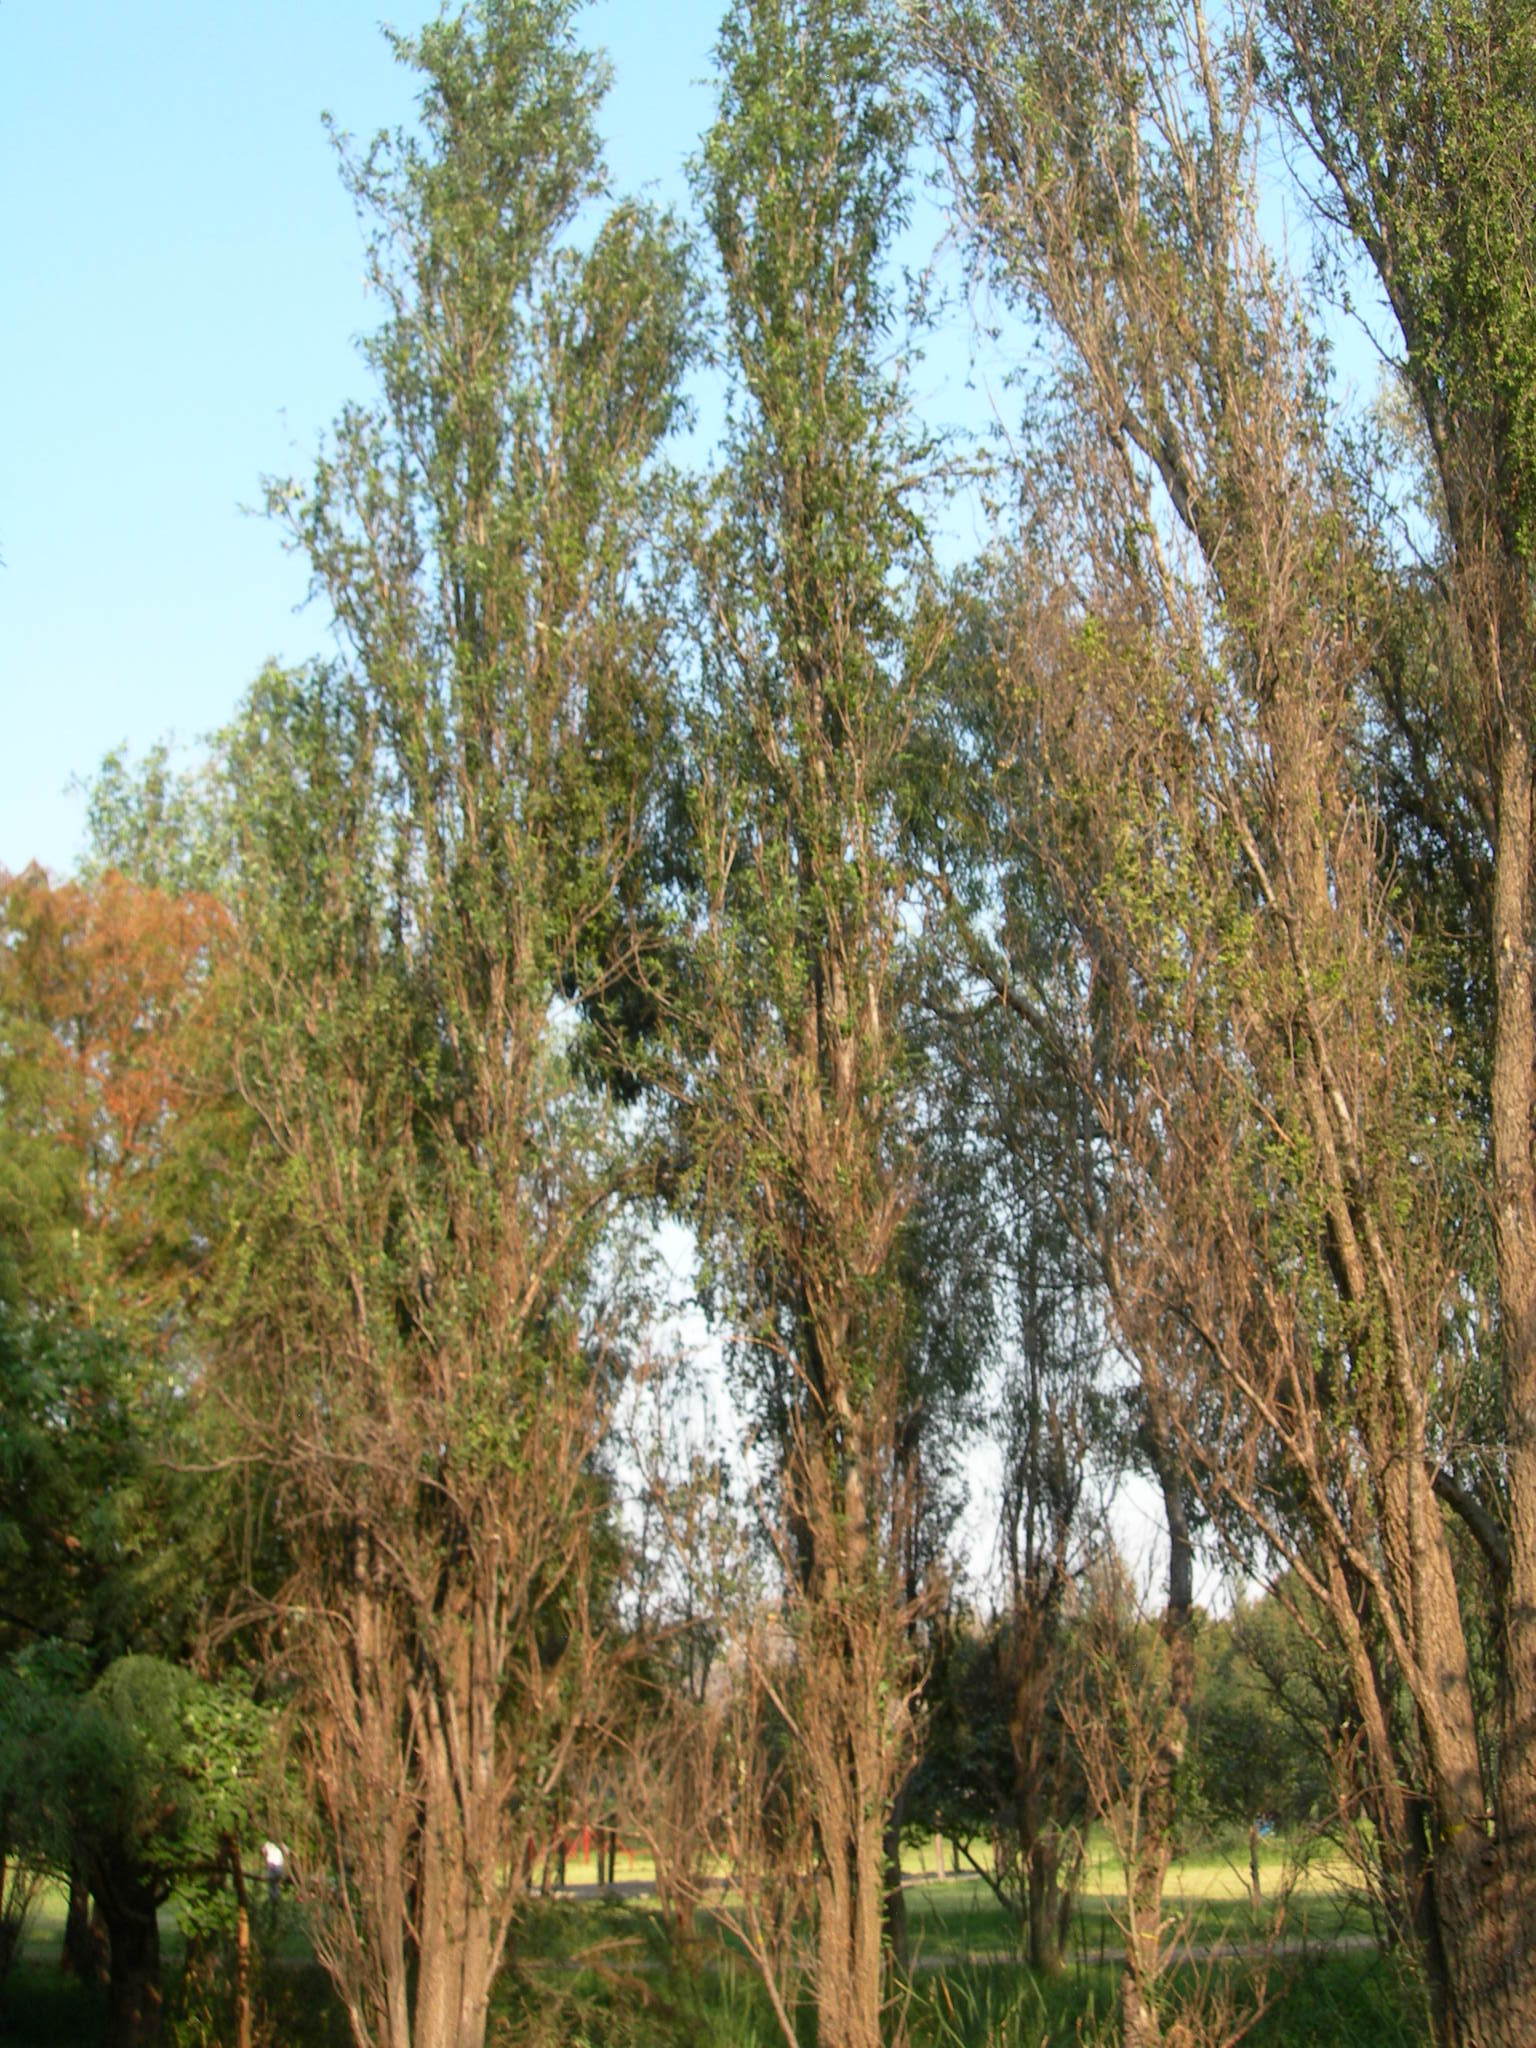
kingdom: Plantae
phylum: Tracheophyta
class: Magnoliopsida
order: Malpighiales
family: Salicaceae
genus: Salix
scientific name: Salix bonplandiana
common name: Bonpland’s willow
